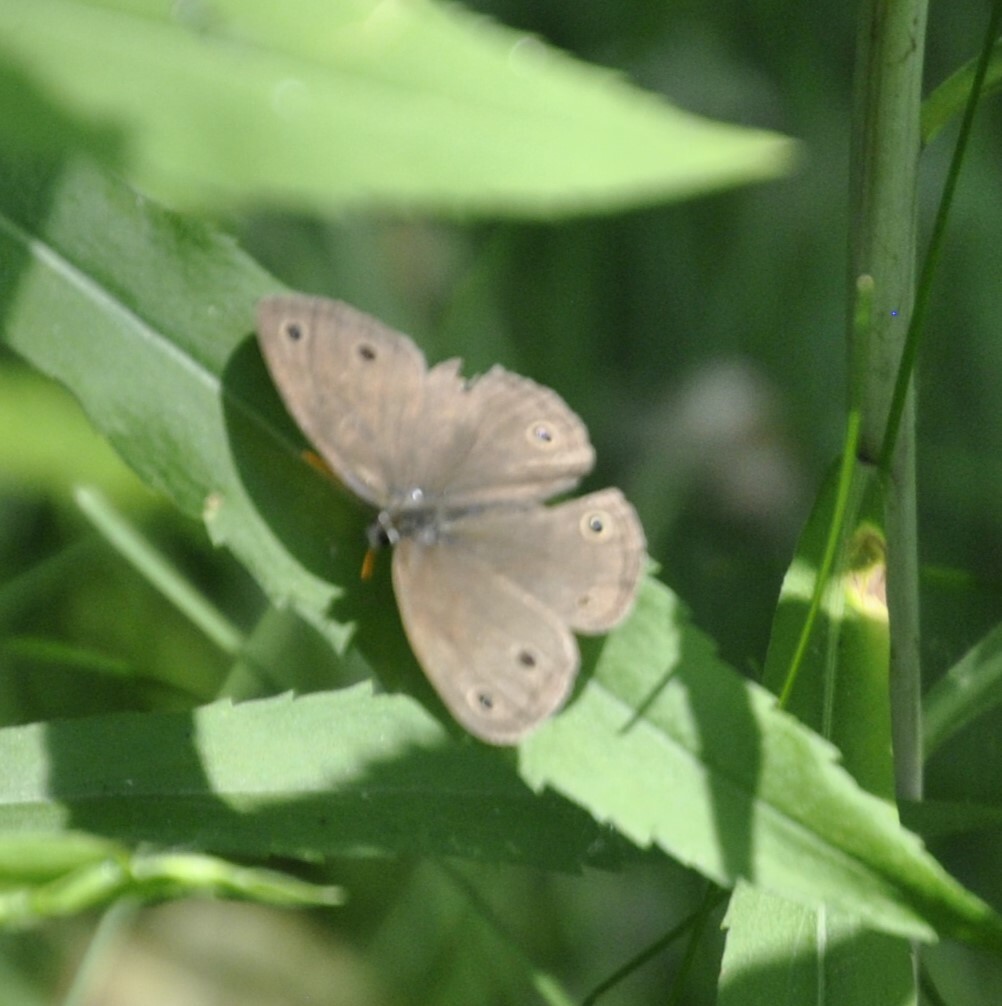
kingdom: Animalia
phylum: Arthropoda
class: Insecta
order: Lepidoptera
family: Nymphalidae
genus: Euptychia
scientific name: Euptychia cymela
